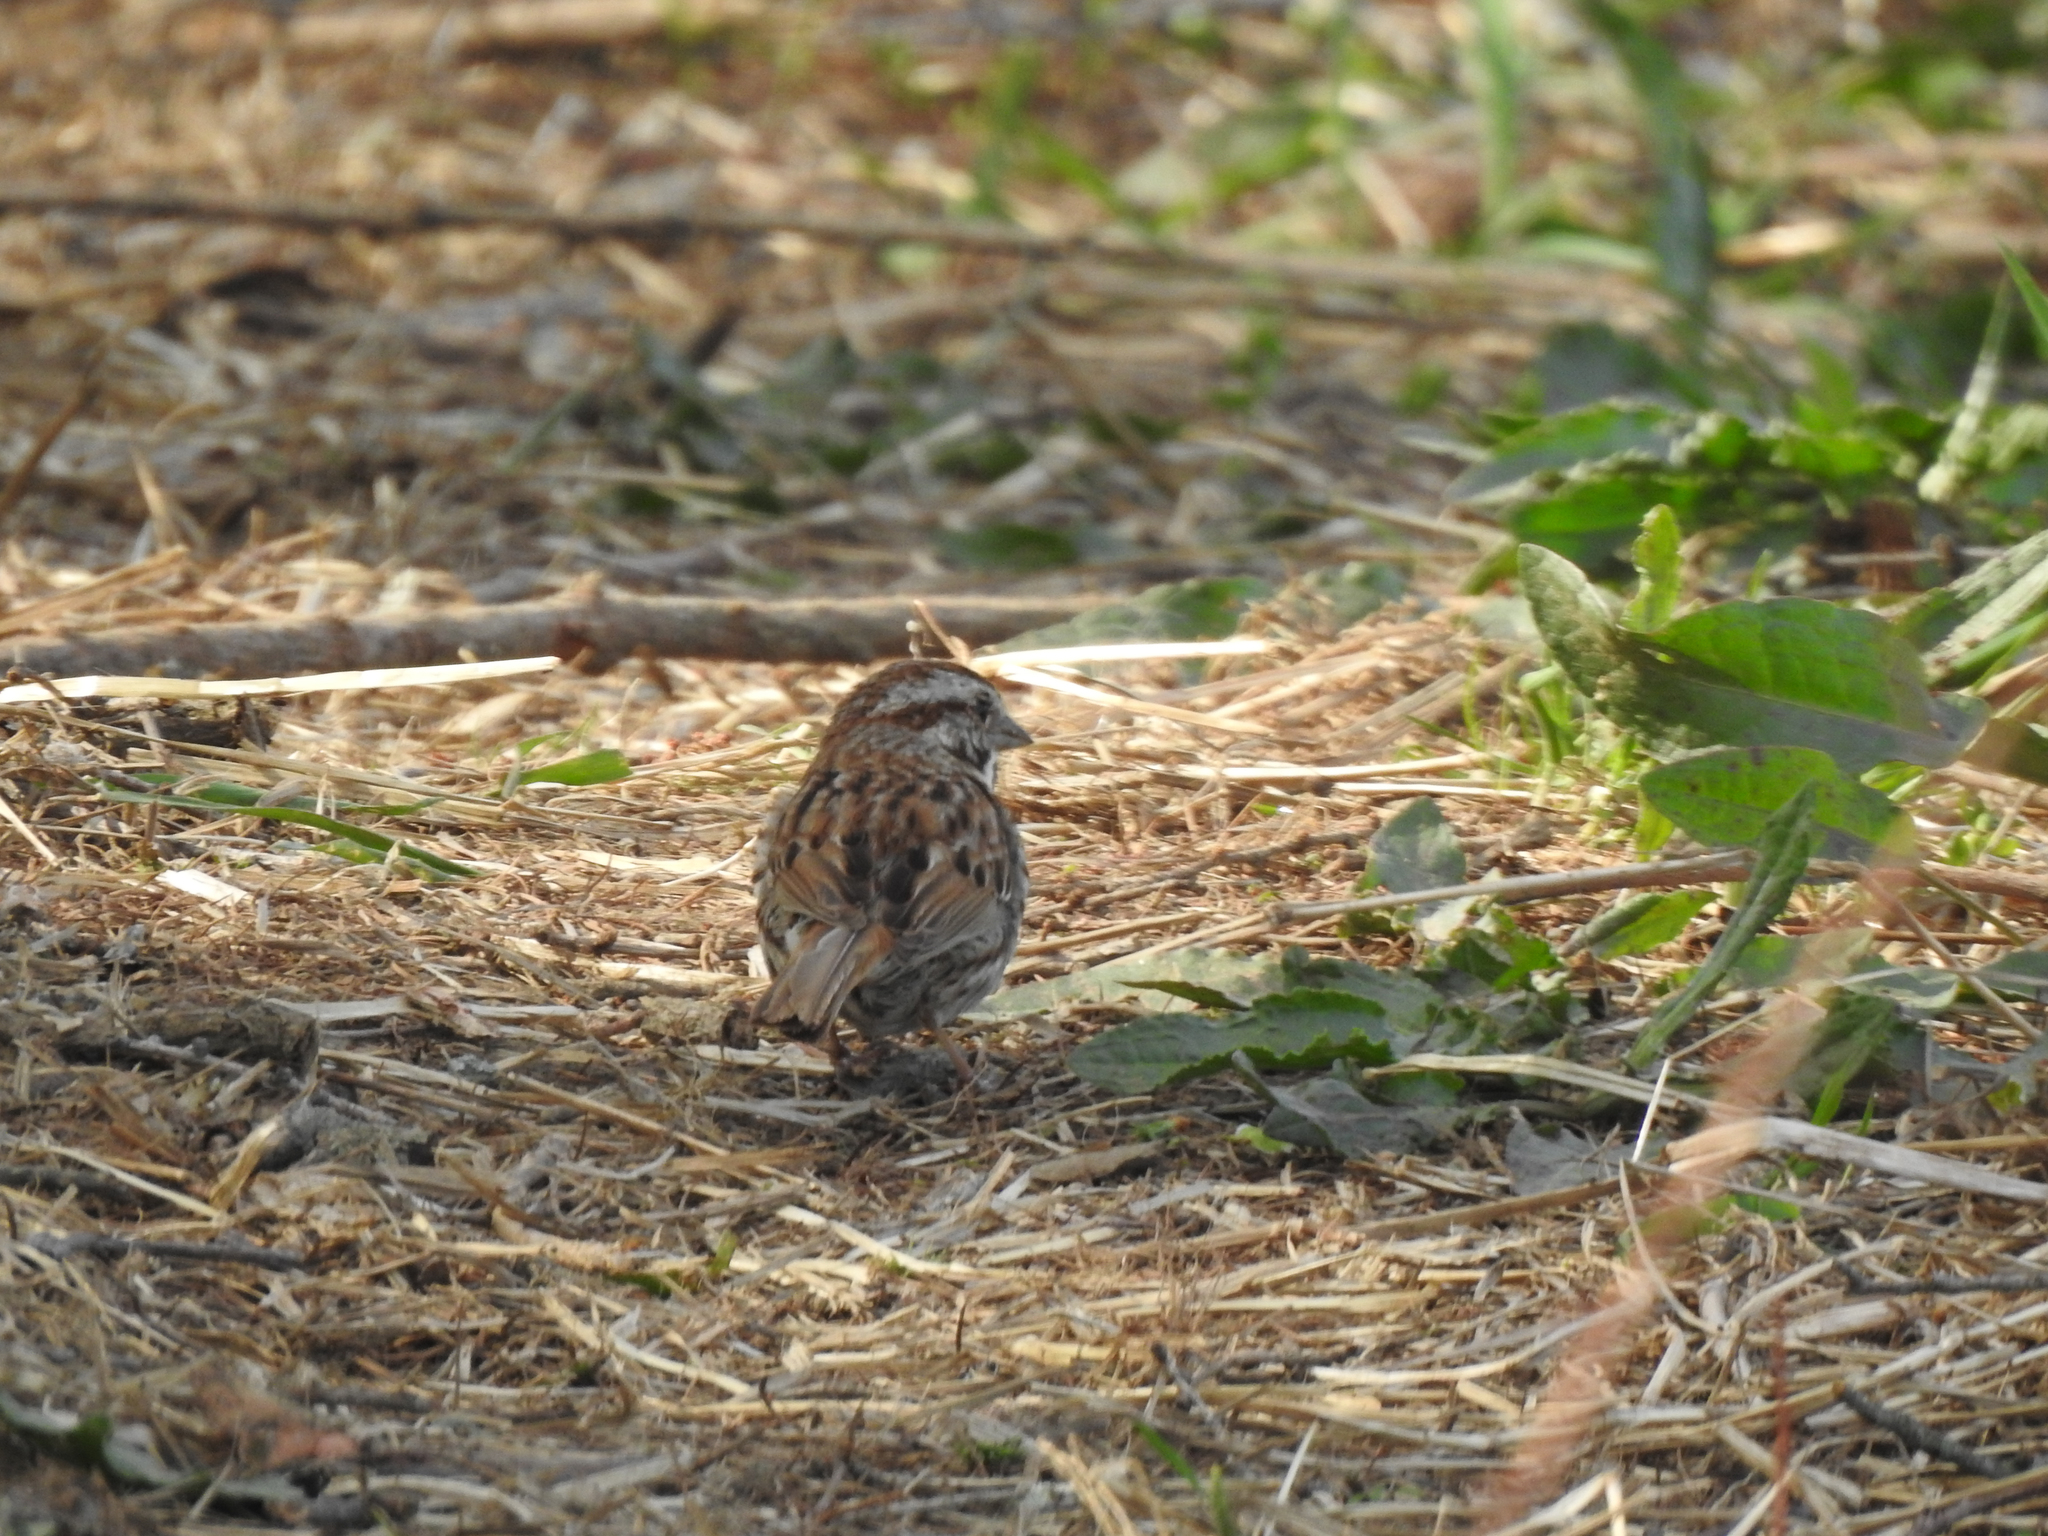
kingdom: Animalia
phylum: Chordata
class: Aves
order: Passeriformes
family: Passerellidae
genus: Melospiza
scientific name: Melospiza melodia
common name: Song sparrow
